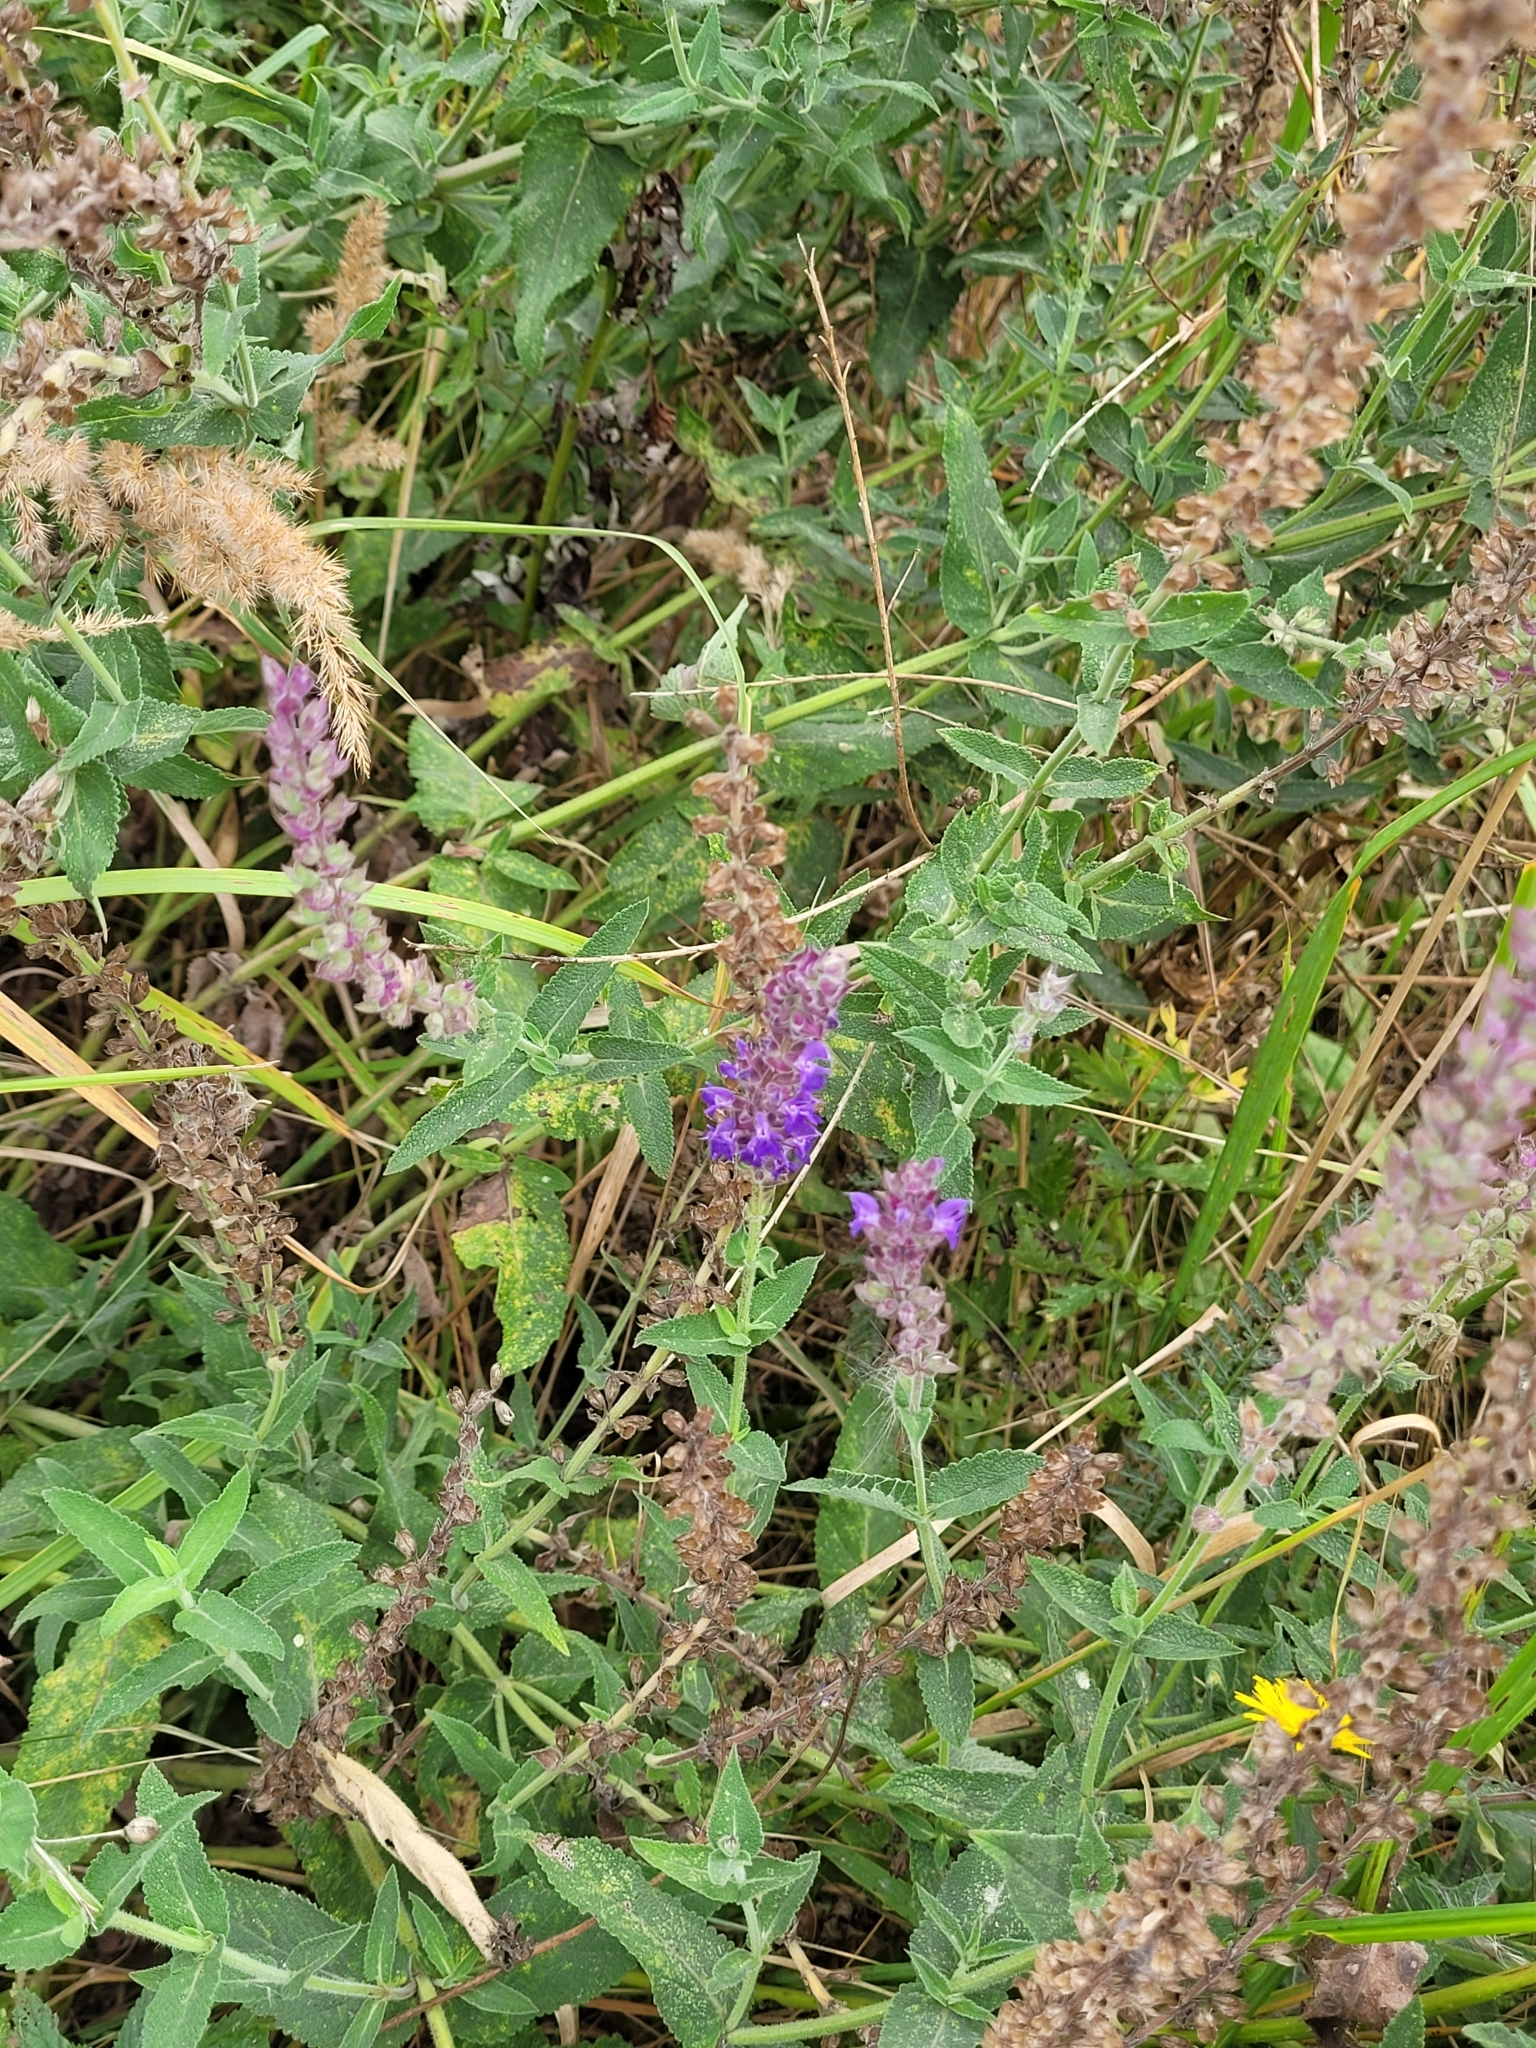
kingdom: Plantae
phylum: Tracheophyta
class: Magnoliopsida
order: Lamiales
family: Lamiaceae
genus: Salvia
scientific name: Salvia nemorosa
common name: Balkan clary
